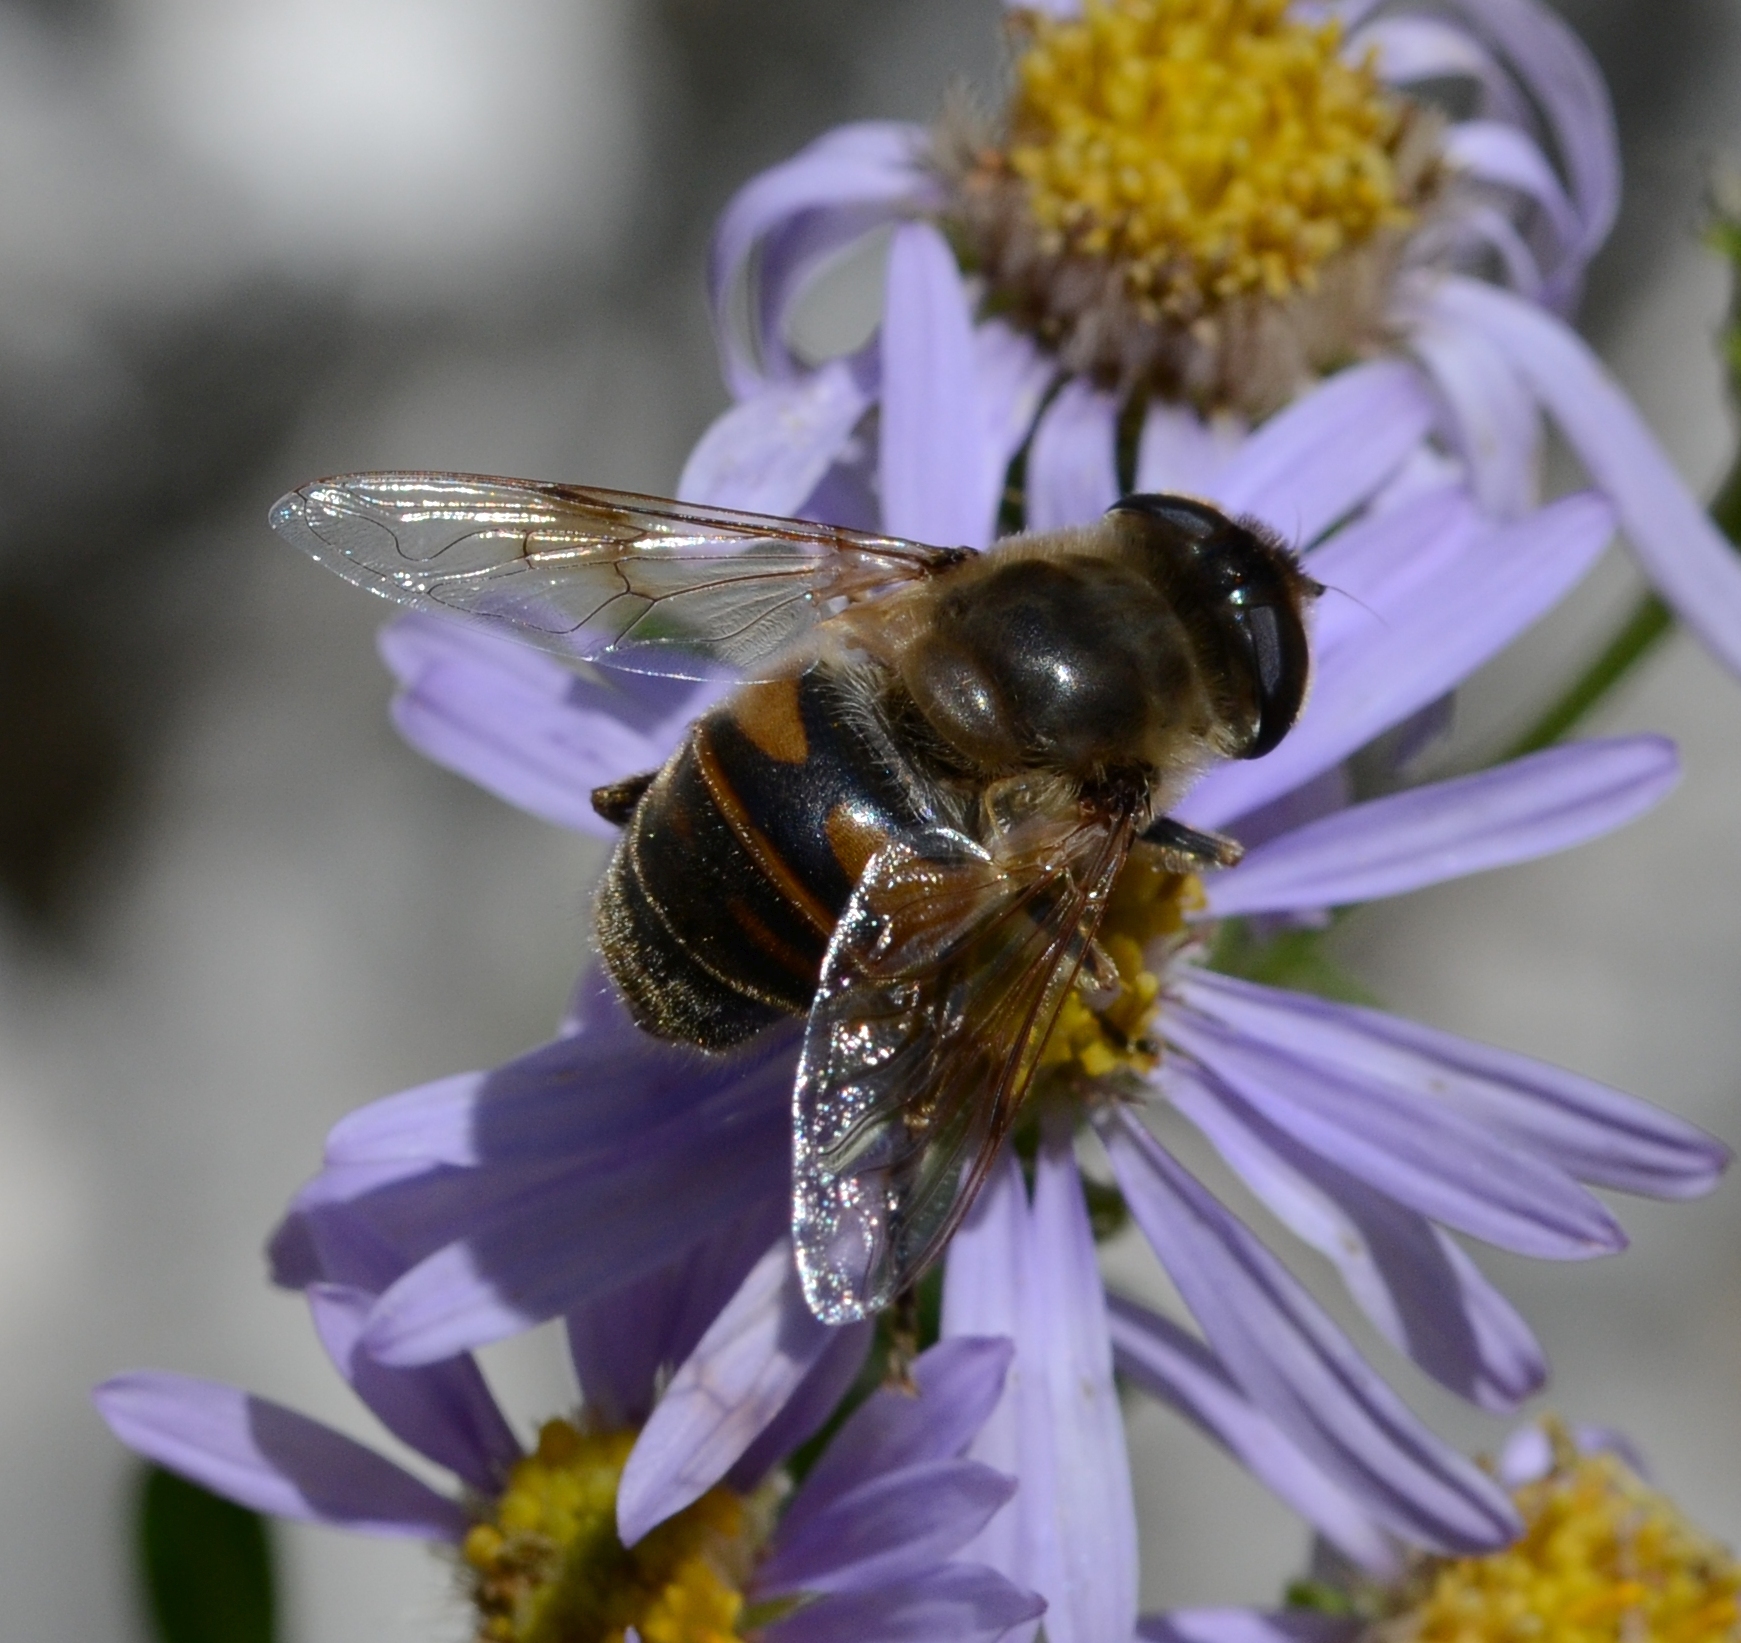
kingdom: Animalia
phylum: Arthropoda
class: Insecta
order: Diptera
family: Syrphidae
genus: Eristalis
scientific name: Eristalis tenax
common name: Drone fly
